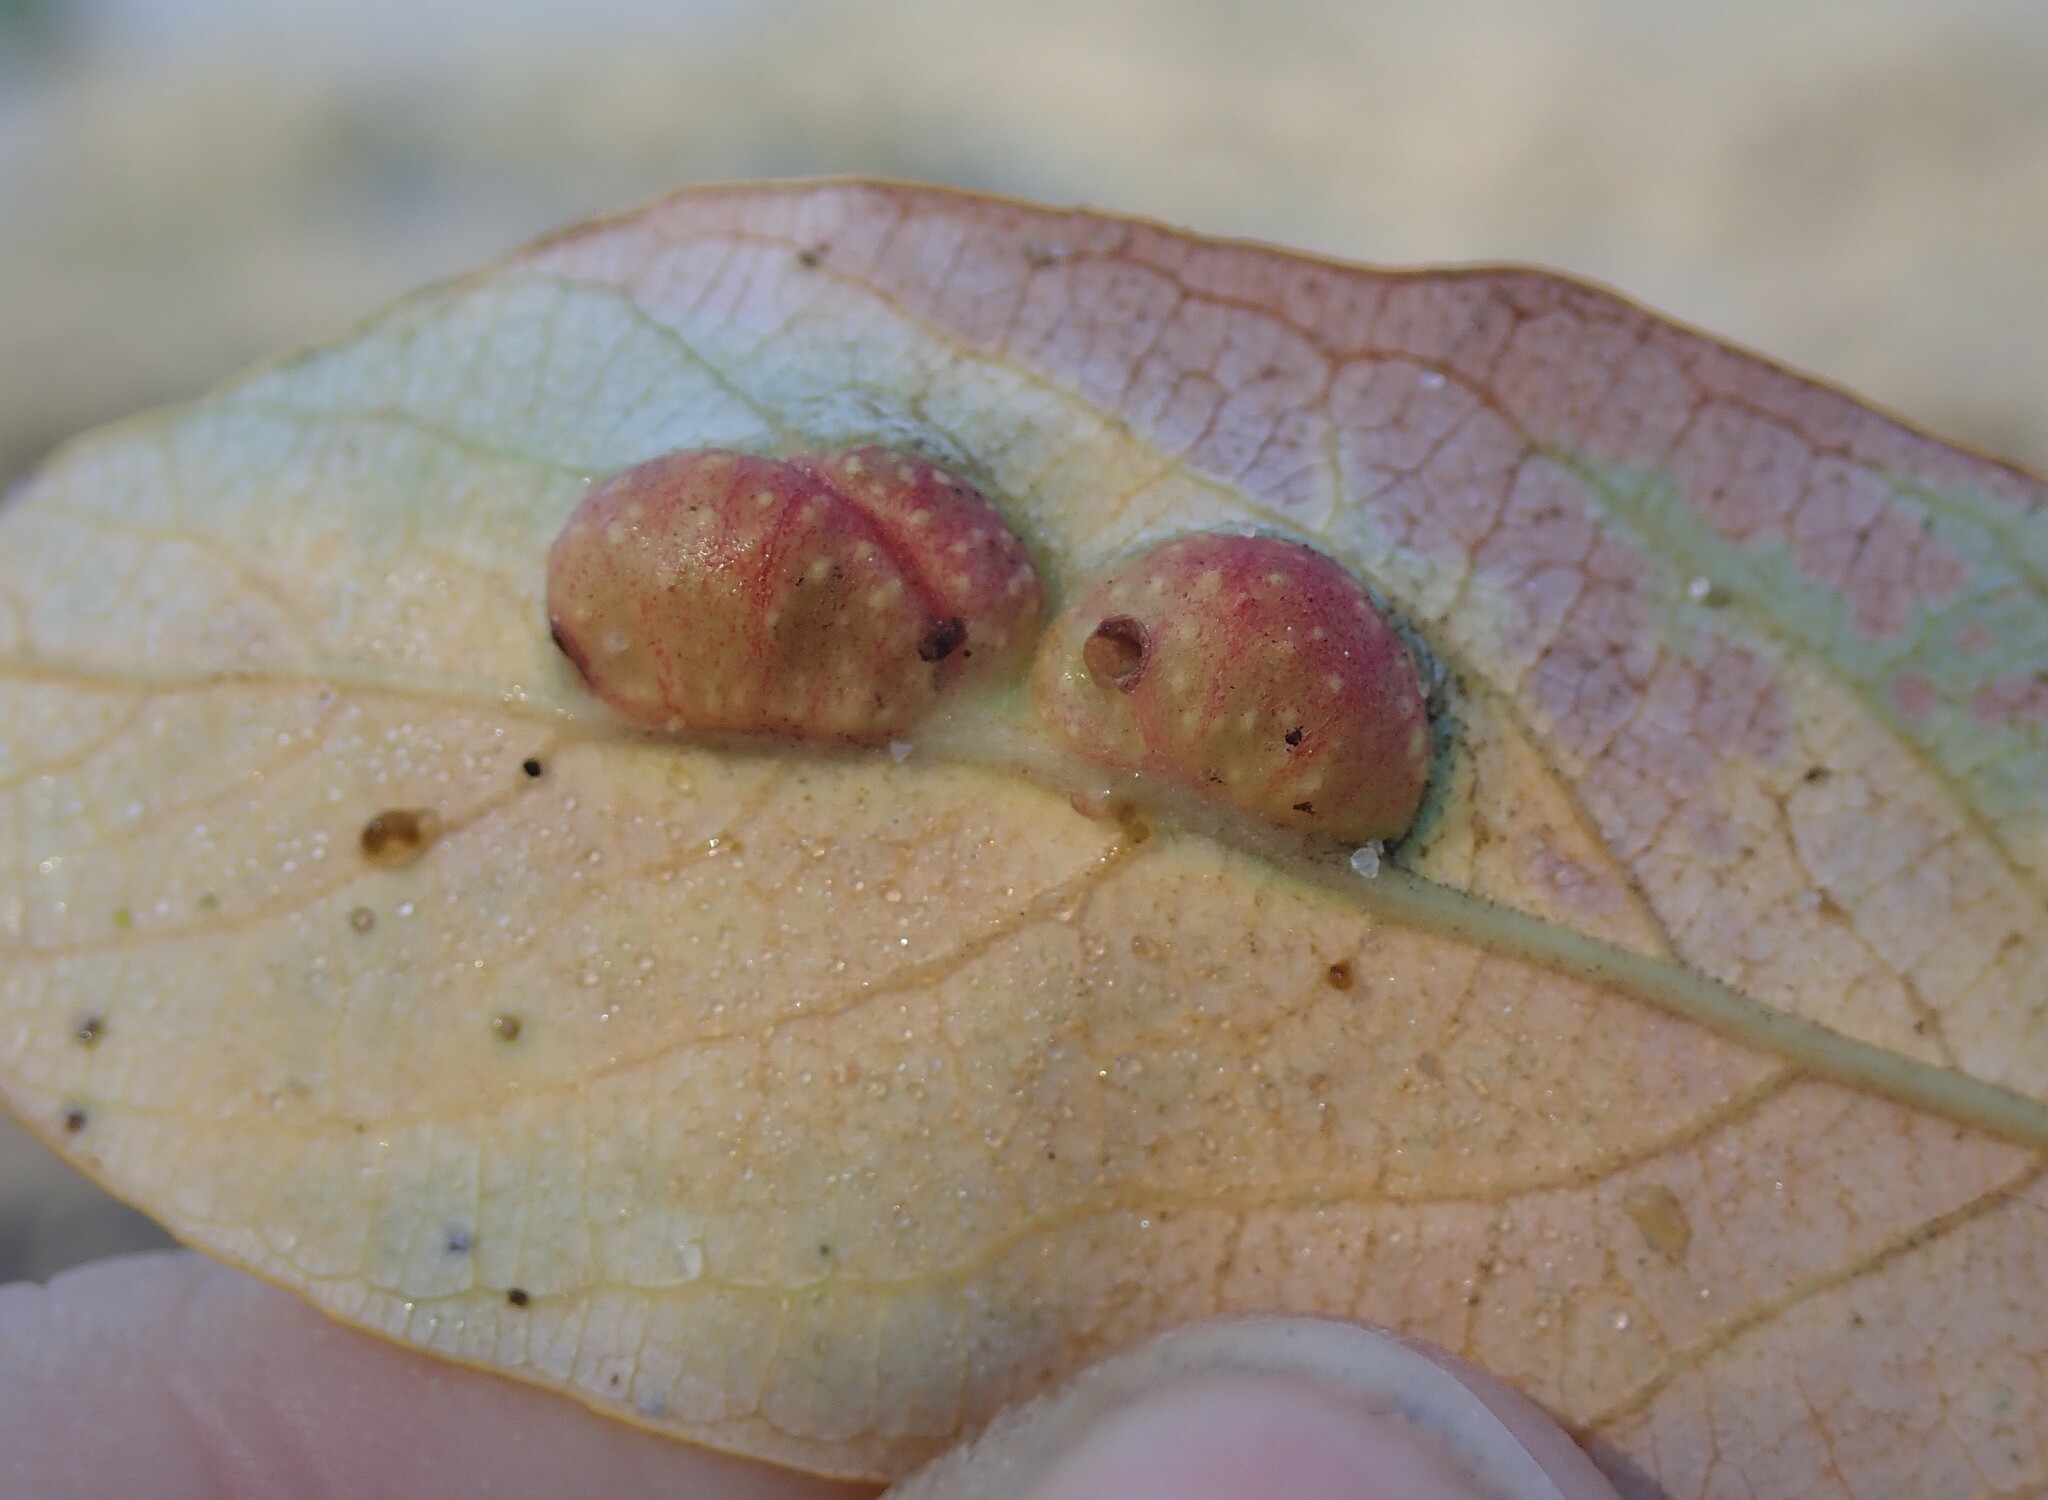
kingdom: Animalia
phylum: Arthropoda
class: Insecta
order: Hymenoptera
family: Tenthredinidae
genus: Euura
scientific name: Euura
